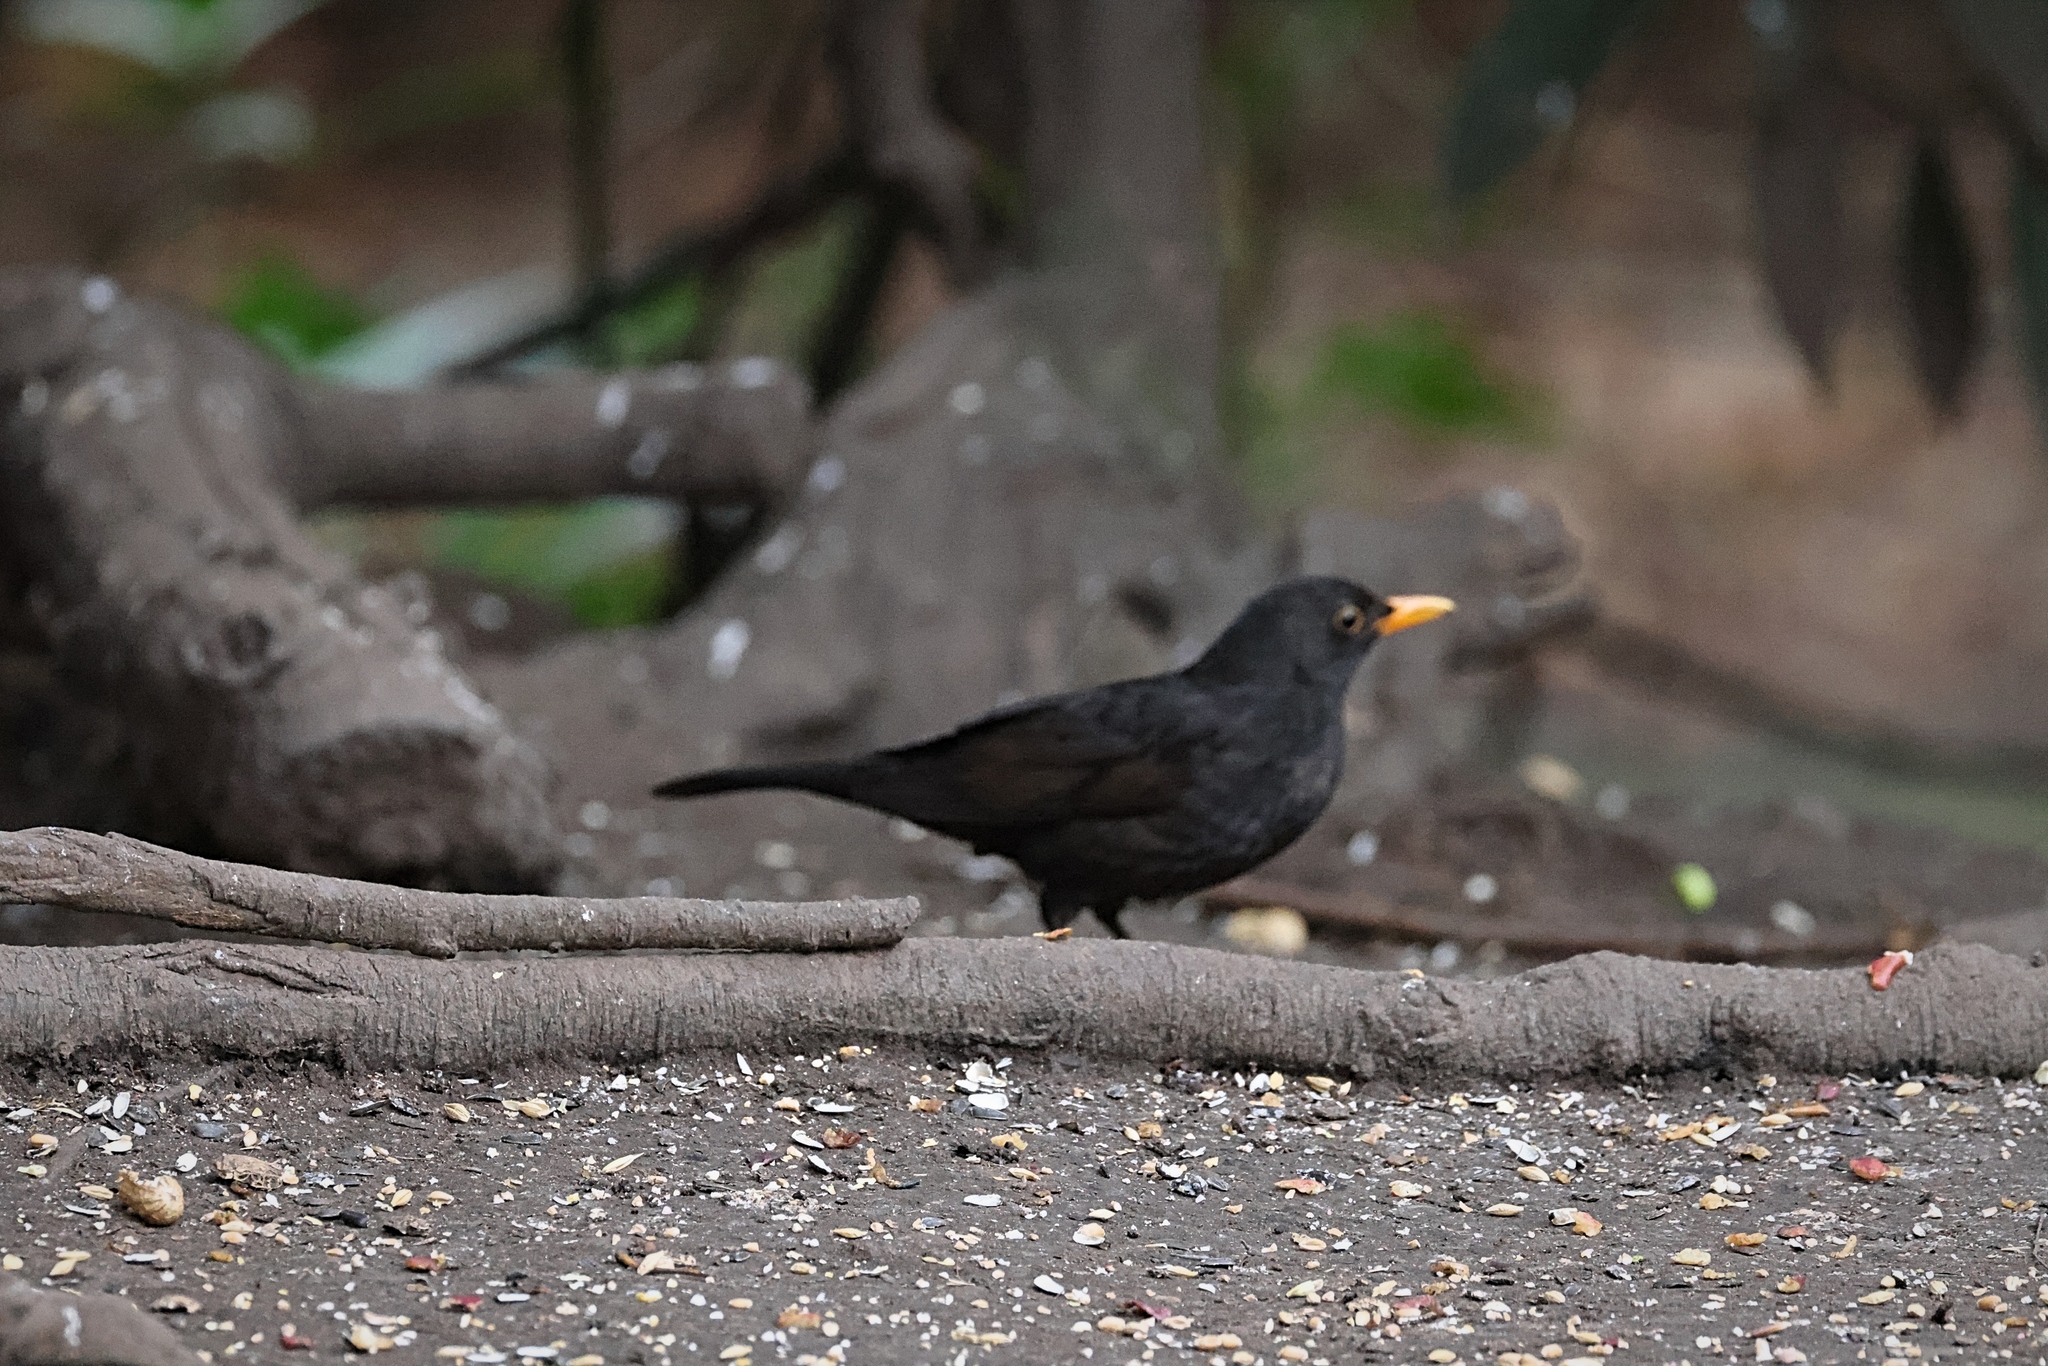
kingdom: Animalia
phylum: Chordata
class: Aves
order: Passeriformes
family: Turdidae
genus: Turdus
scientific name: Turdus merula
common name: Common blackbird
